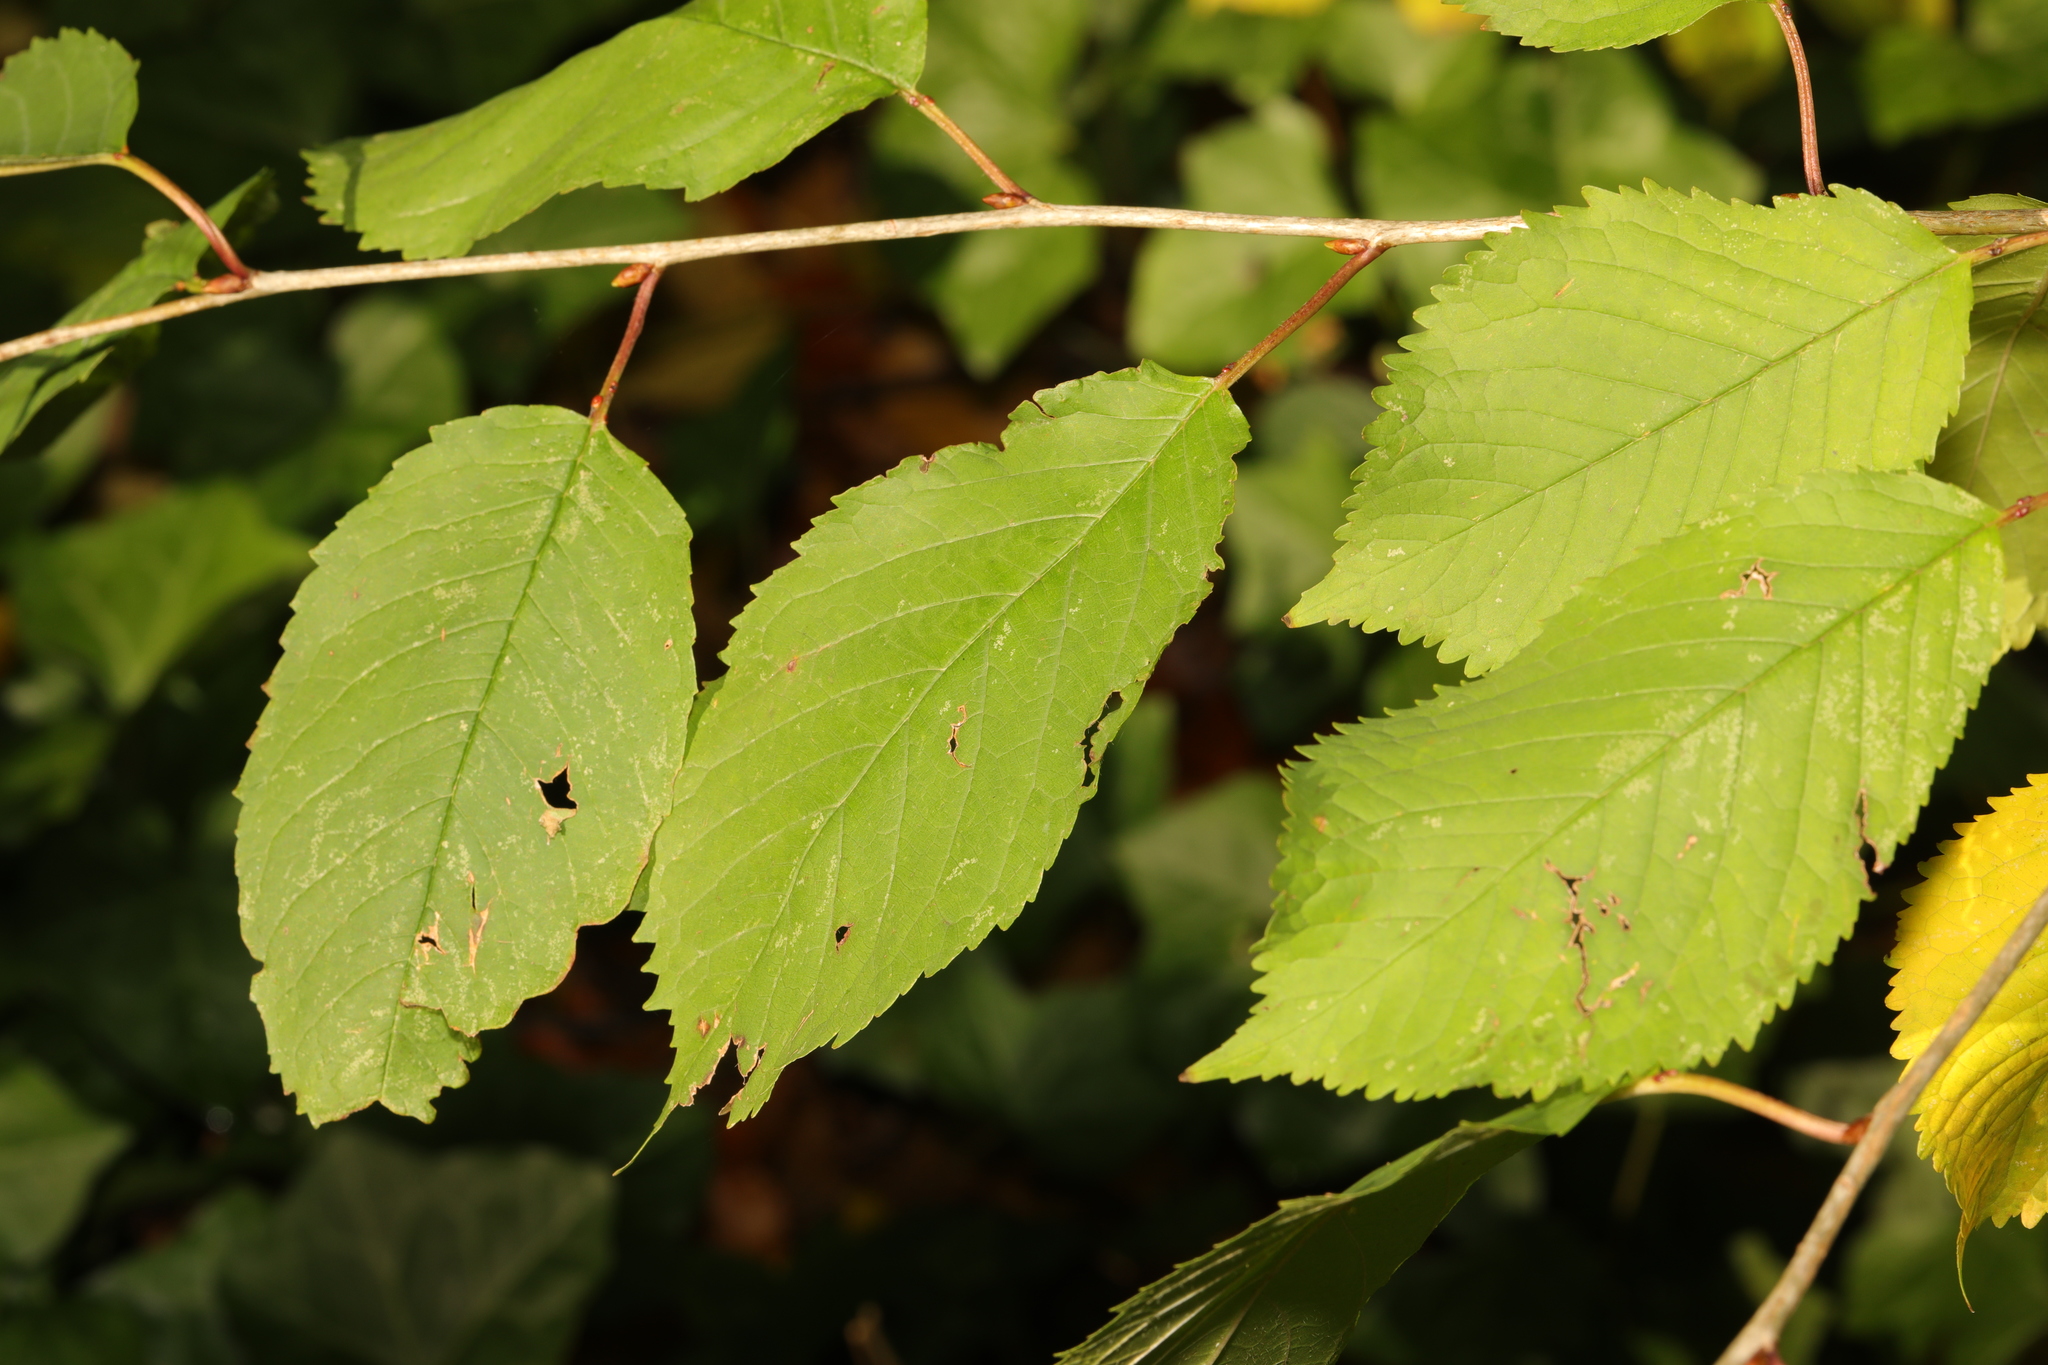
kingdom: Plantae
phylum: Tracheophyta
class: Magnoliopsida
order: Rosales
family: Rosaceae
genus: Prunus
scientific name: Prunus avium
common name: Sweet cherry
